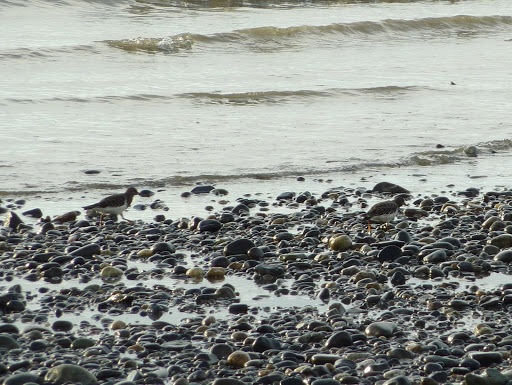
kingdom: Animalia
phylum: Chordata
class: Aves
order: Charadriiformes
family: Scolopacidae
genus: Arenaria
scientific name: Arenaria melanocephala
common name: Black turnstone
